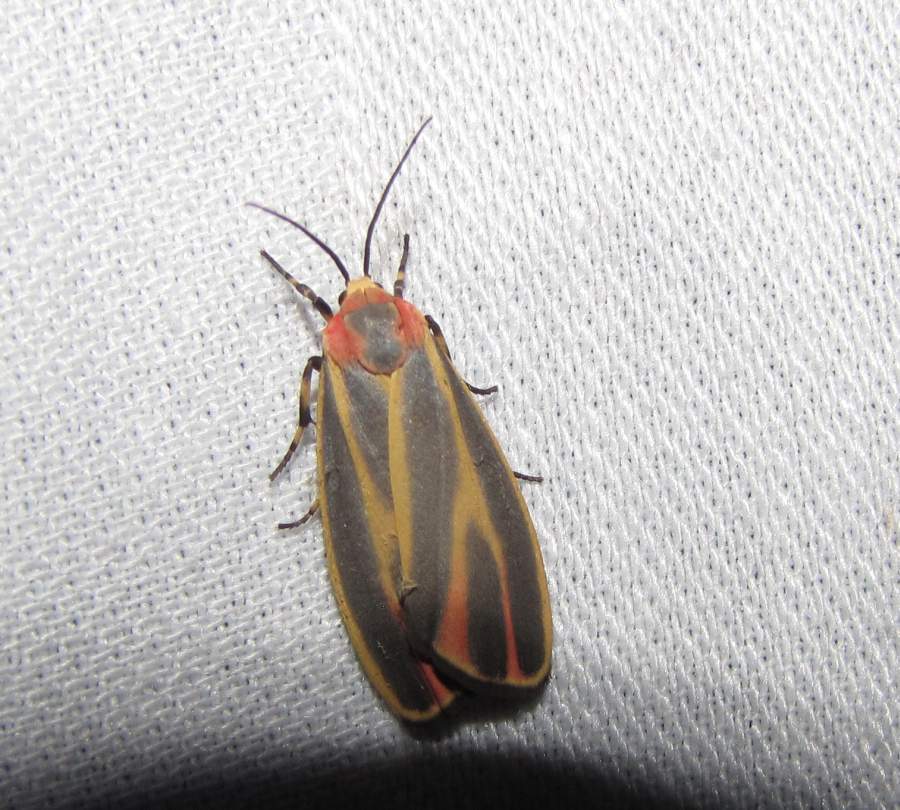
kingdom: Animalia
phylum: Arthropoda
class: Insecta
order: Lepidoptera
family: Erebidae
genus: Hypoprepia
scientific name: Hypoprepia fucosa
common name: Painted lichen moth
